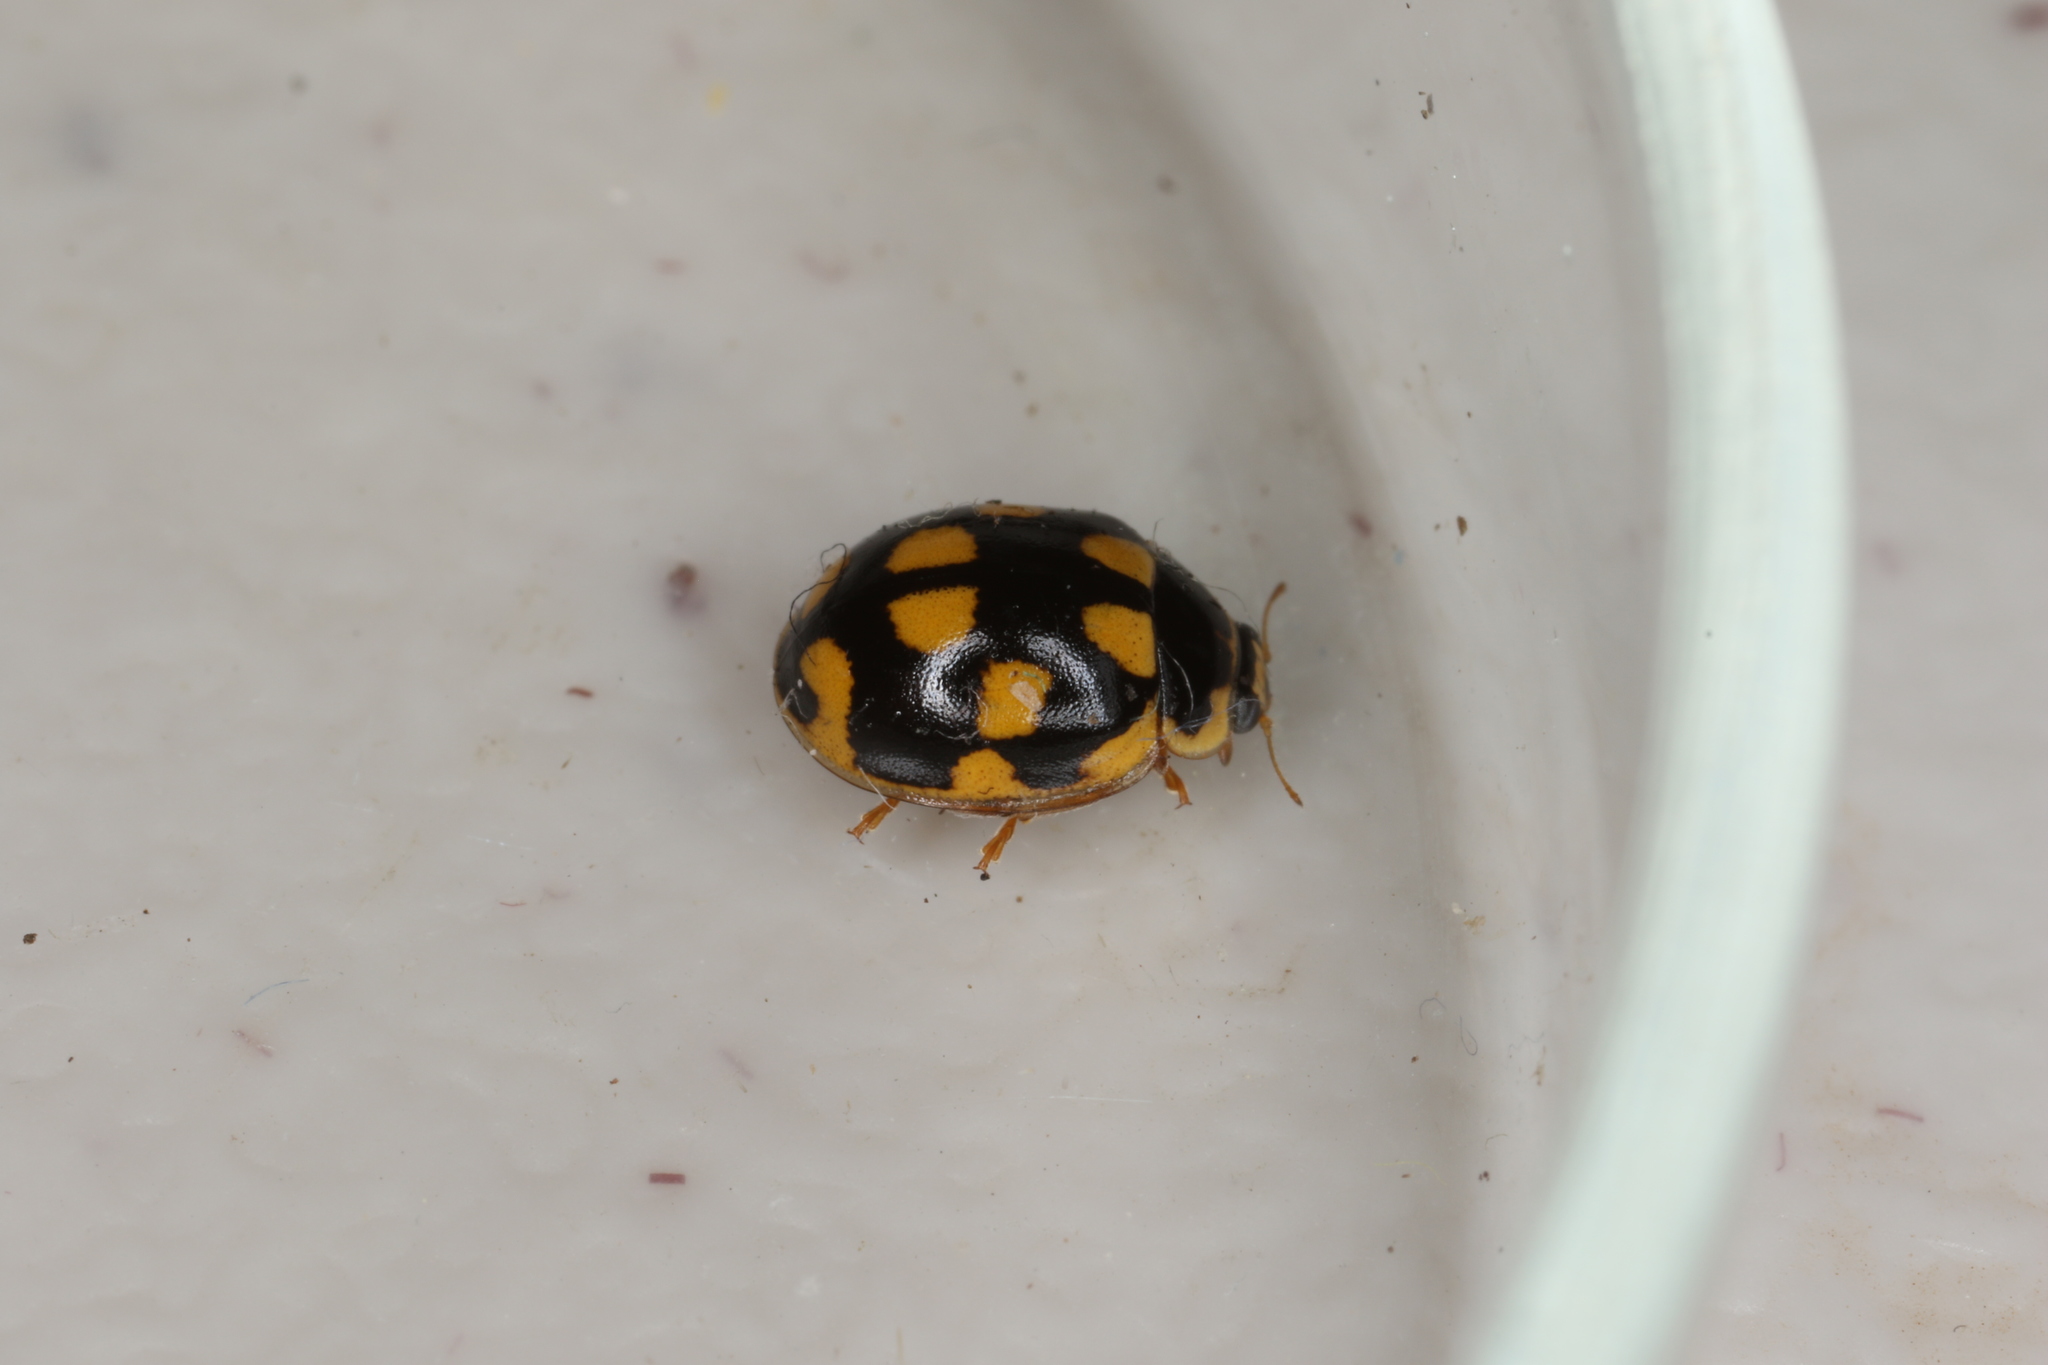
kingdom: Animalia
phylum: Arthropoda
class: Insecta
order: Coleoptera
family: Coccinellidae
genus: Propylaea
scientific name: Propylaea quatuordecimpunctata
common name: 14-spotted ladybird beetle
